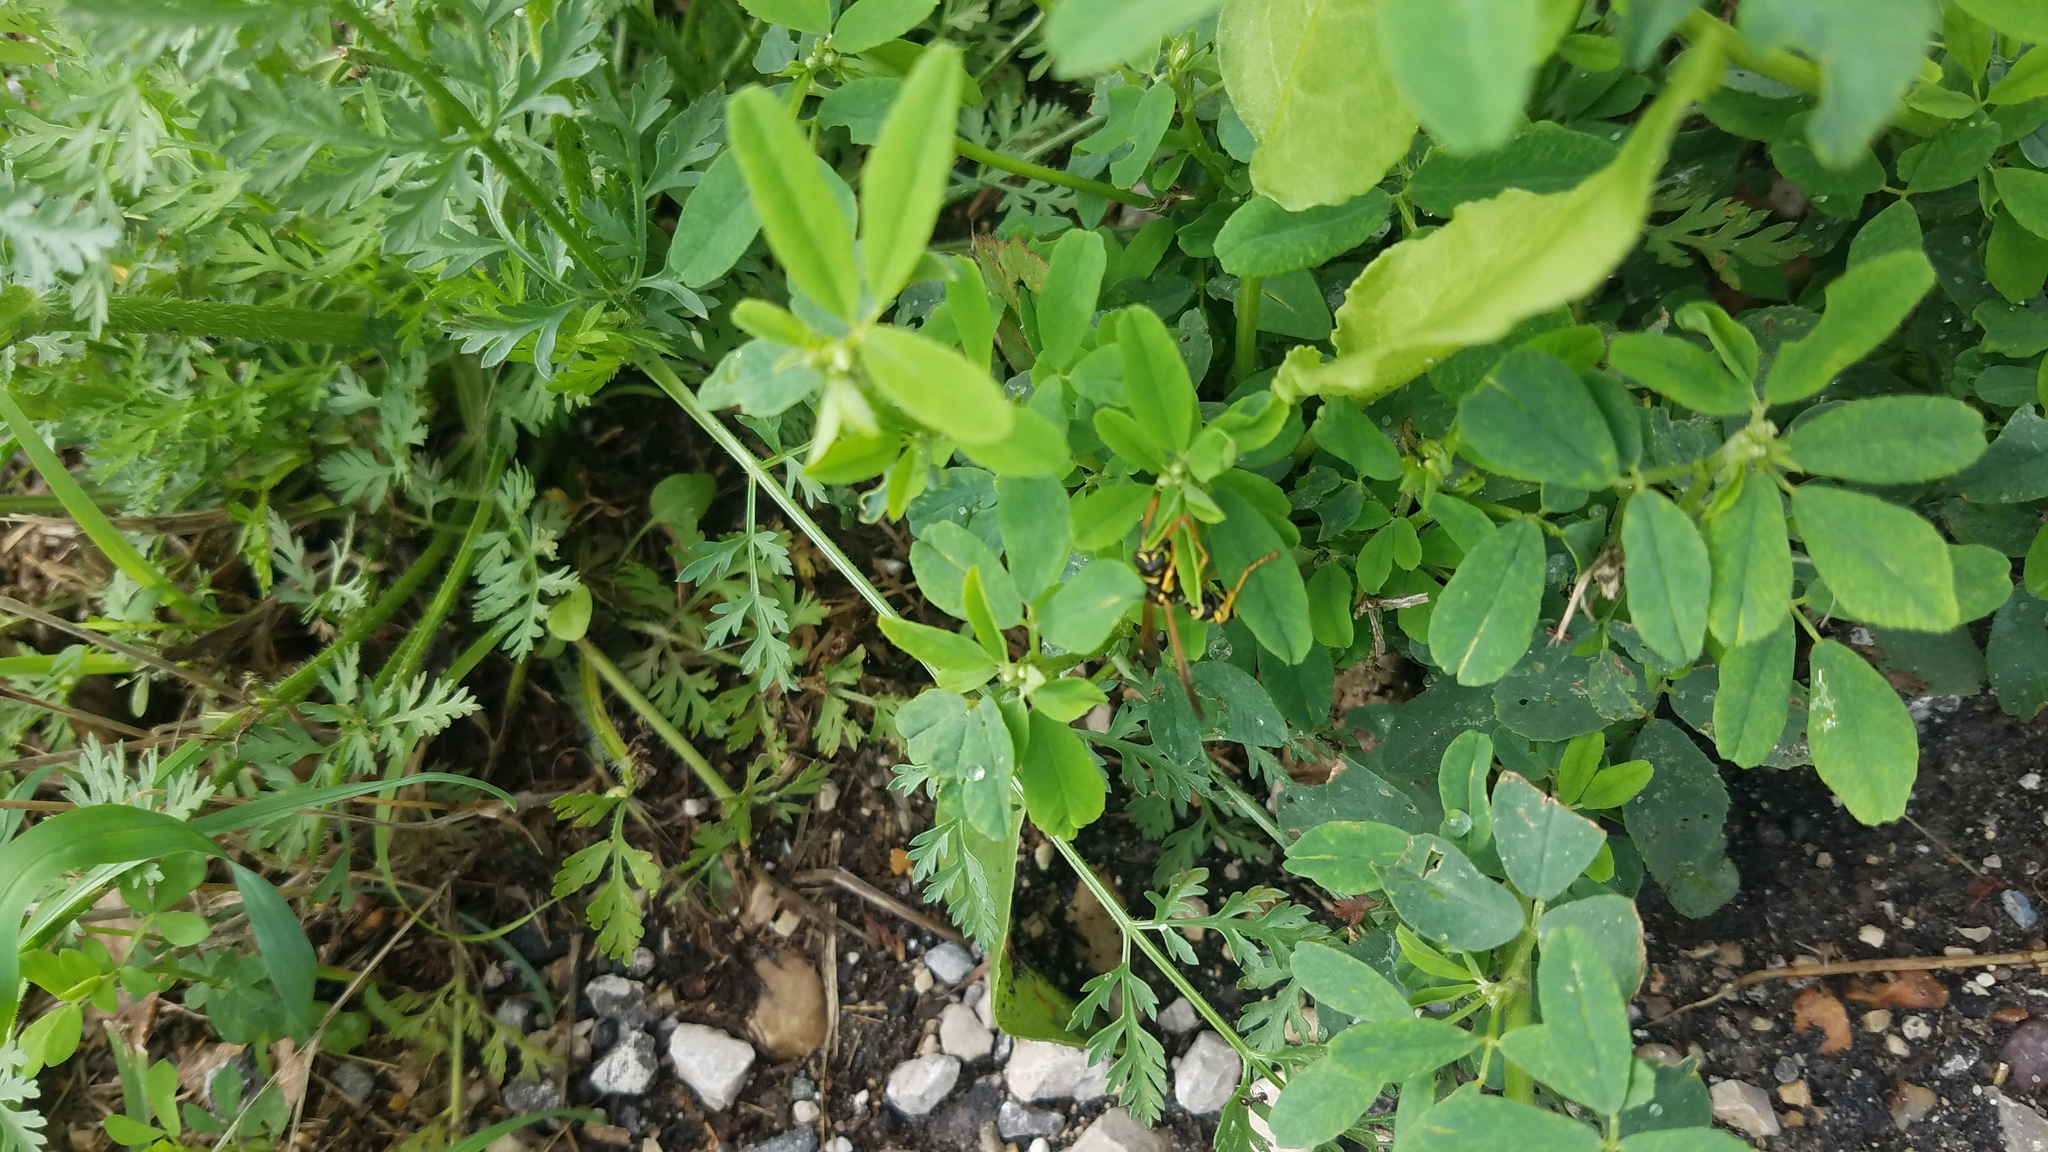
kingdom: Animalia
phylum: Arthropoda
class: Insecta
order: Hymenoptera
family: Eumenidae
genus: Polistes
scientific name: Polistes dominula
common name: Paper wasp
